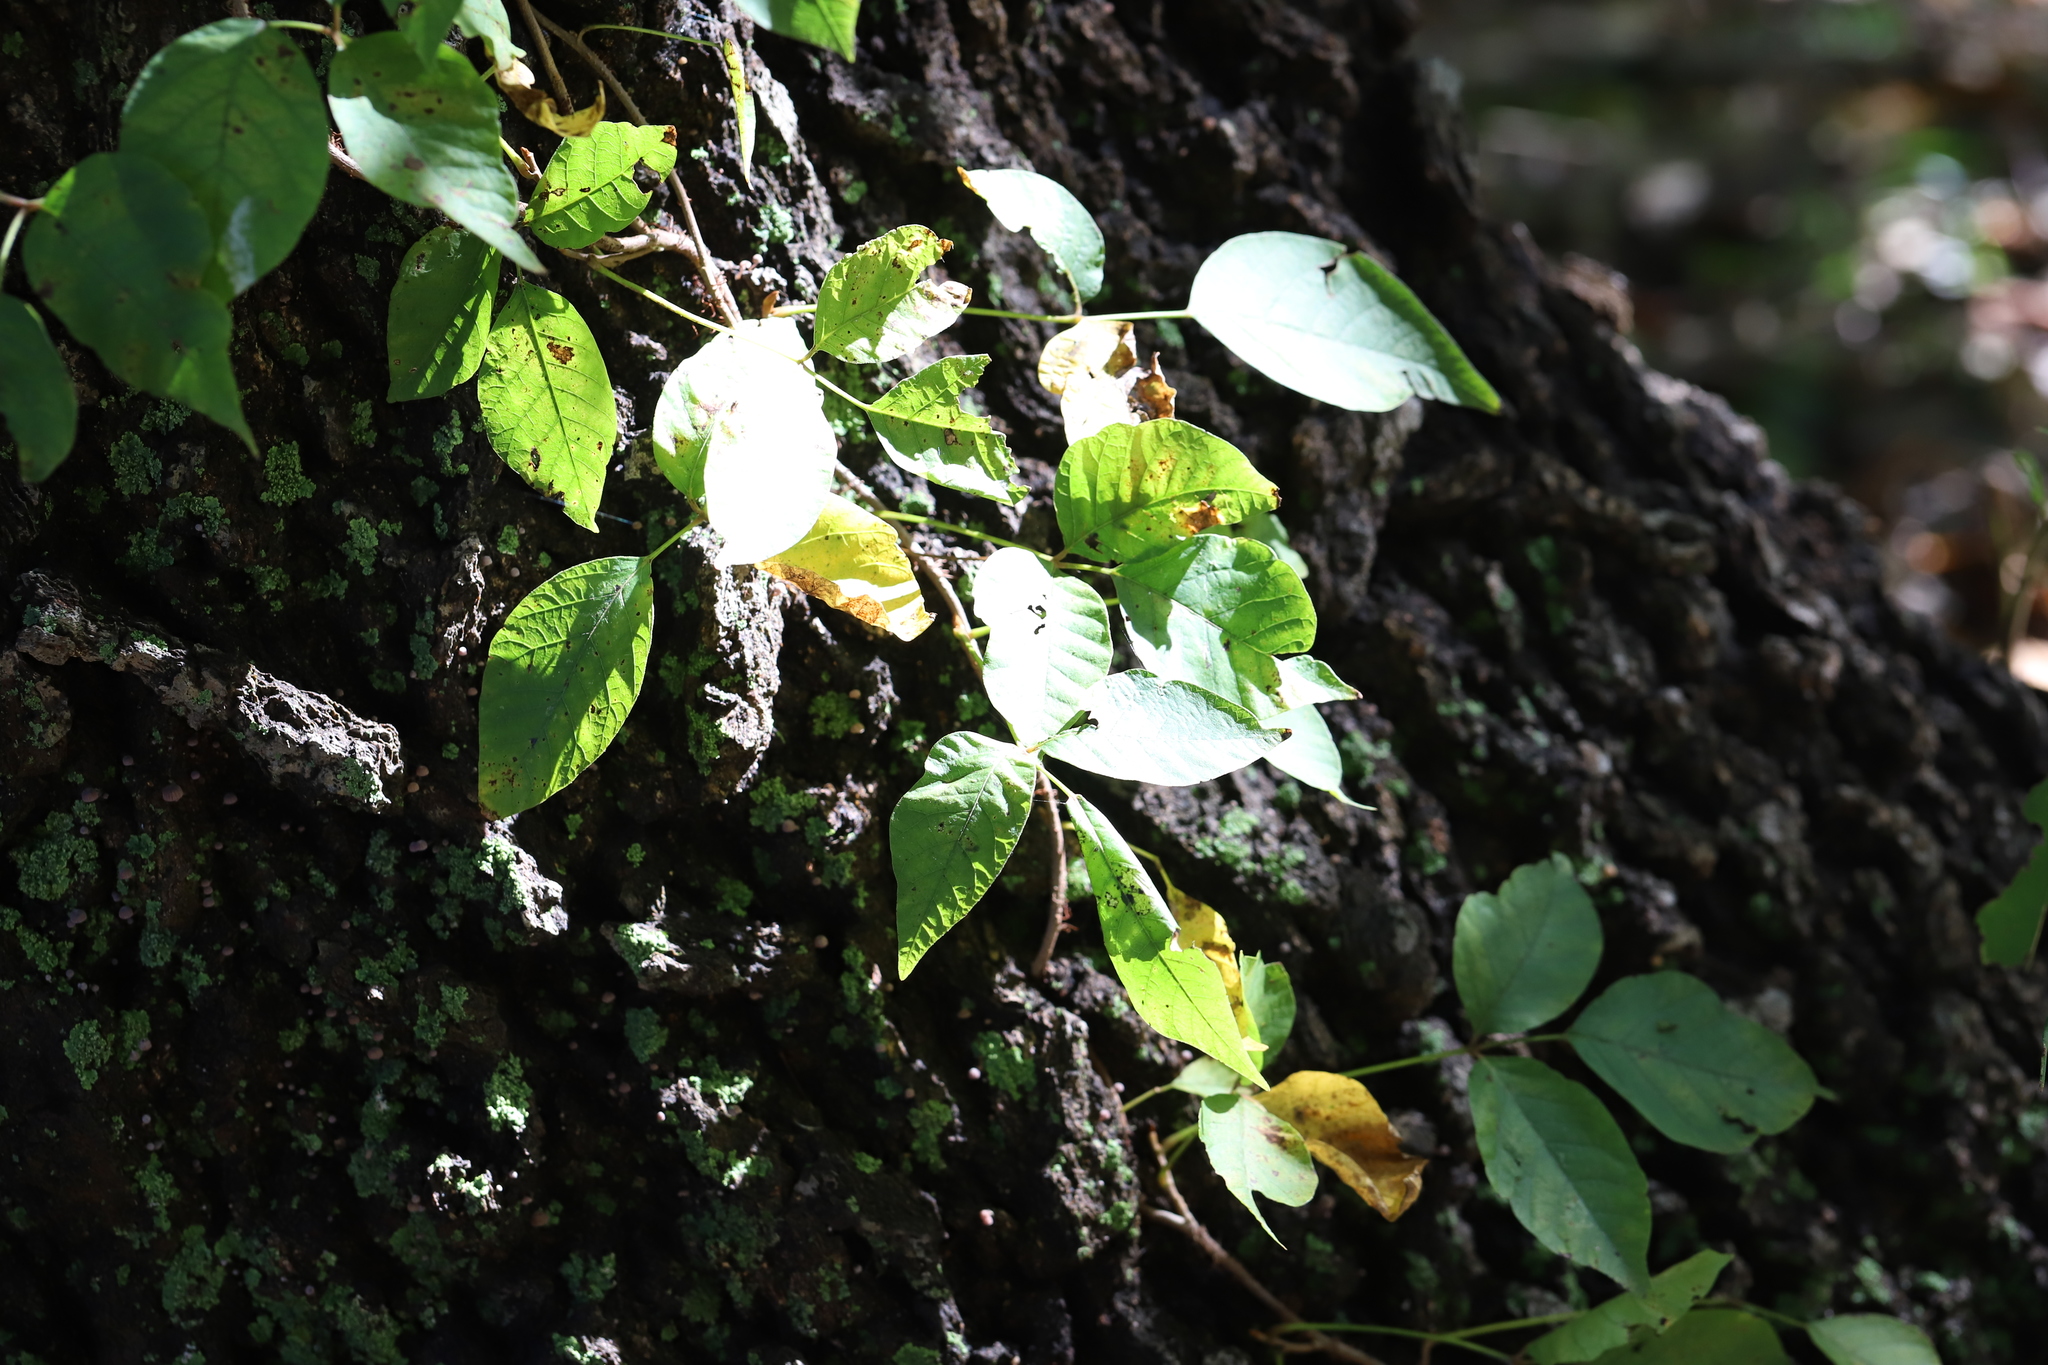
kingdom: Plantae
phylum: Tracheophyta
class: Magnoliopsida
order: Sapindales
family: Anacardiaceae
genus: Toxicodendron
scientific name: Toxicodendron radicans
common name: Poison ivy
